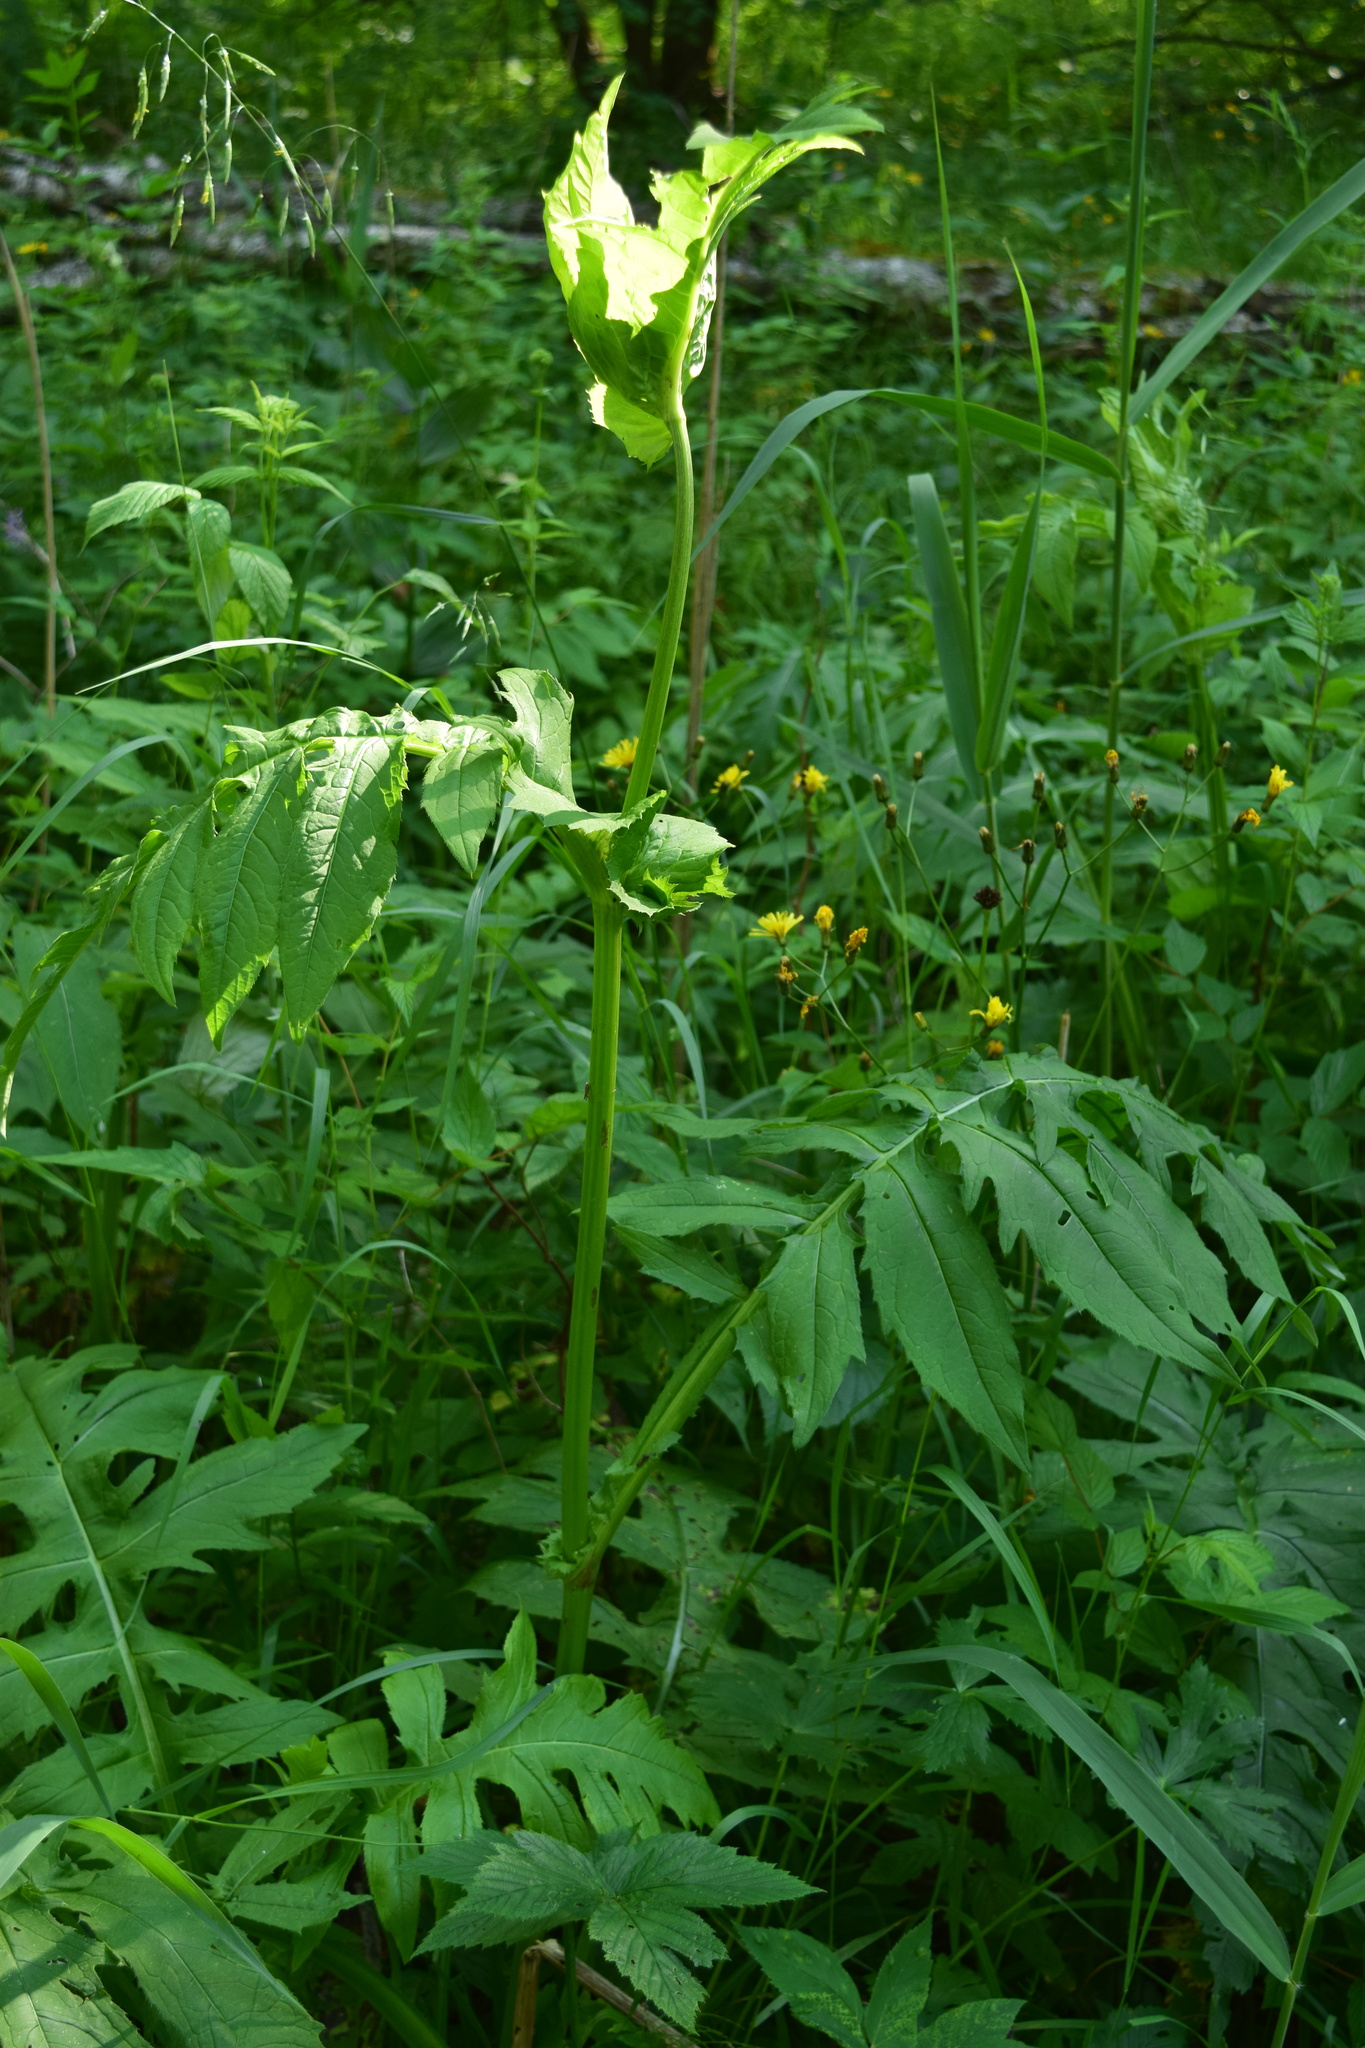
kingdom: Plantae
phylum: Tracheophyta
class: Magnoliopsida
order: Asterales
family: Asteraceae
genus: Cirsium
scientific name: Cirsium oleraceum
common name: Cabbage thistle
